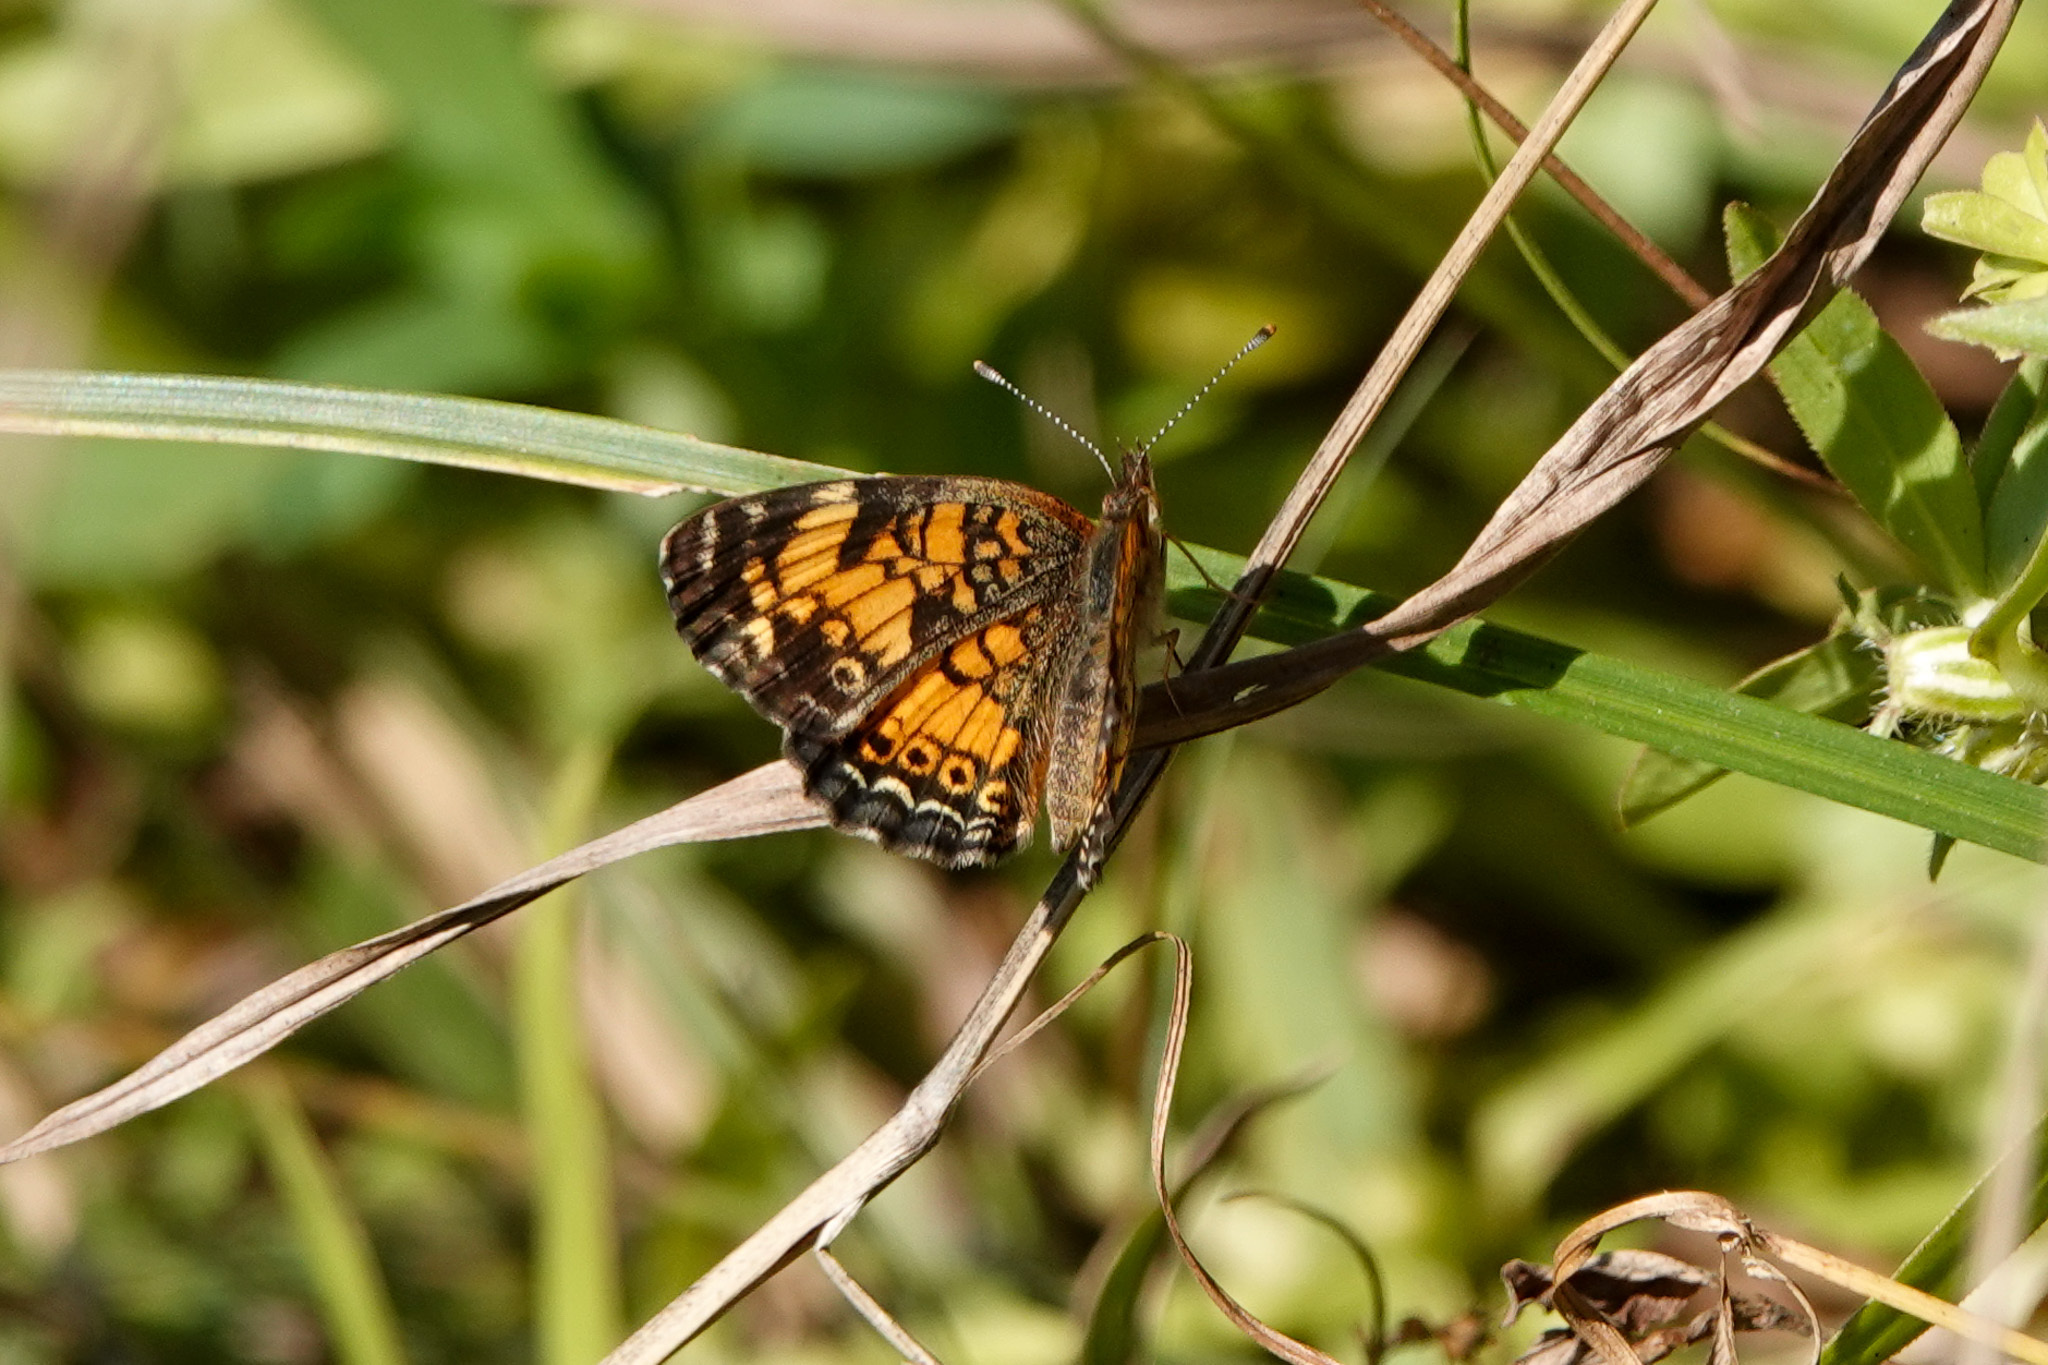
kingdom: Animalia
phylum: Arthropoda
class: Insecta
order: Lepidoptera
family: Nymphalidae
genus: Phyciodes
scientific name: Phyciodes tharos
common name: Pearl crescent
